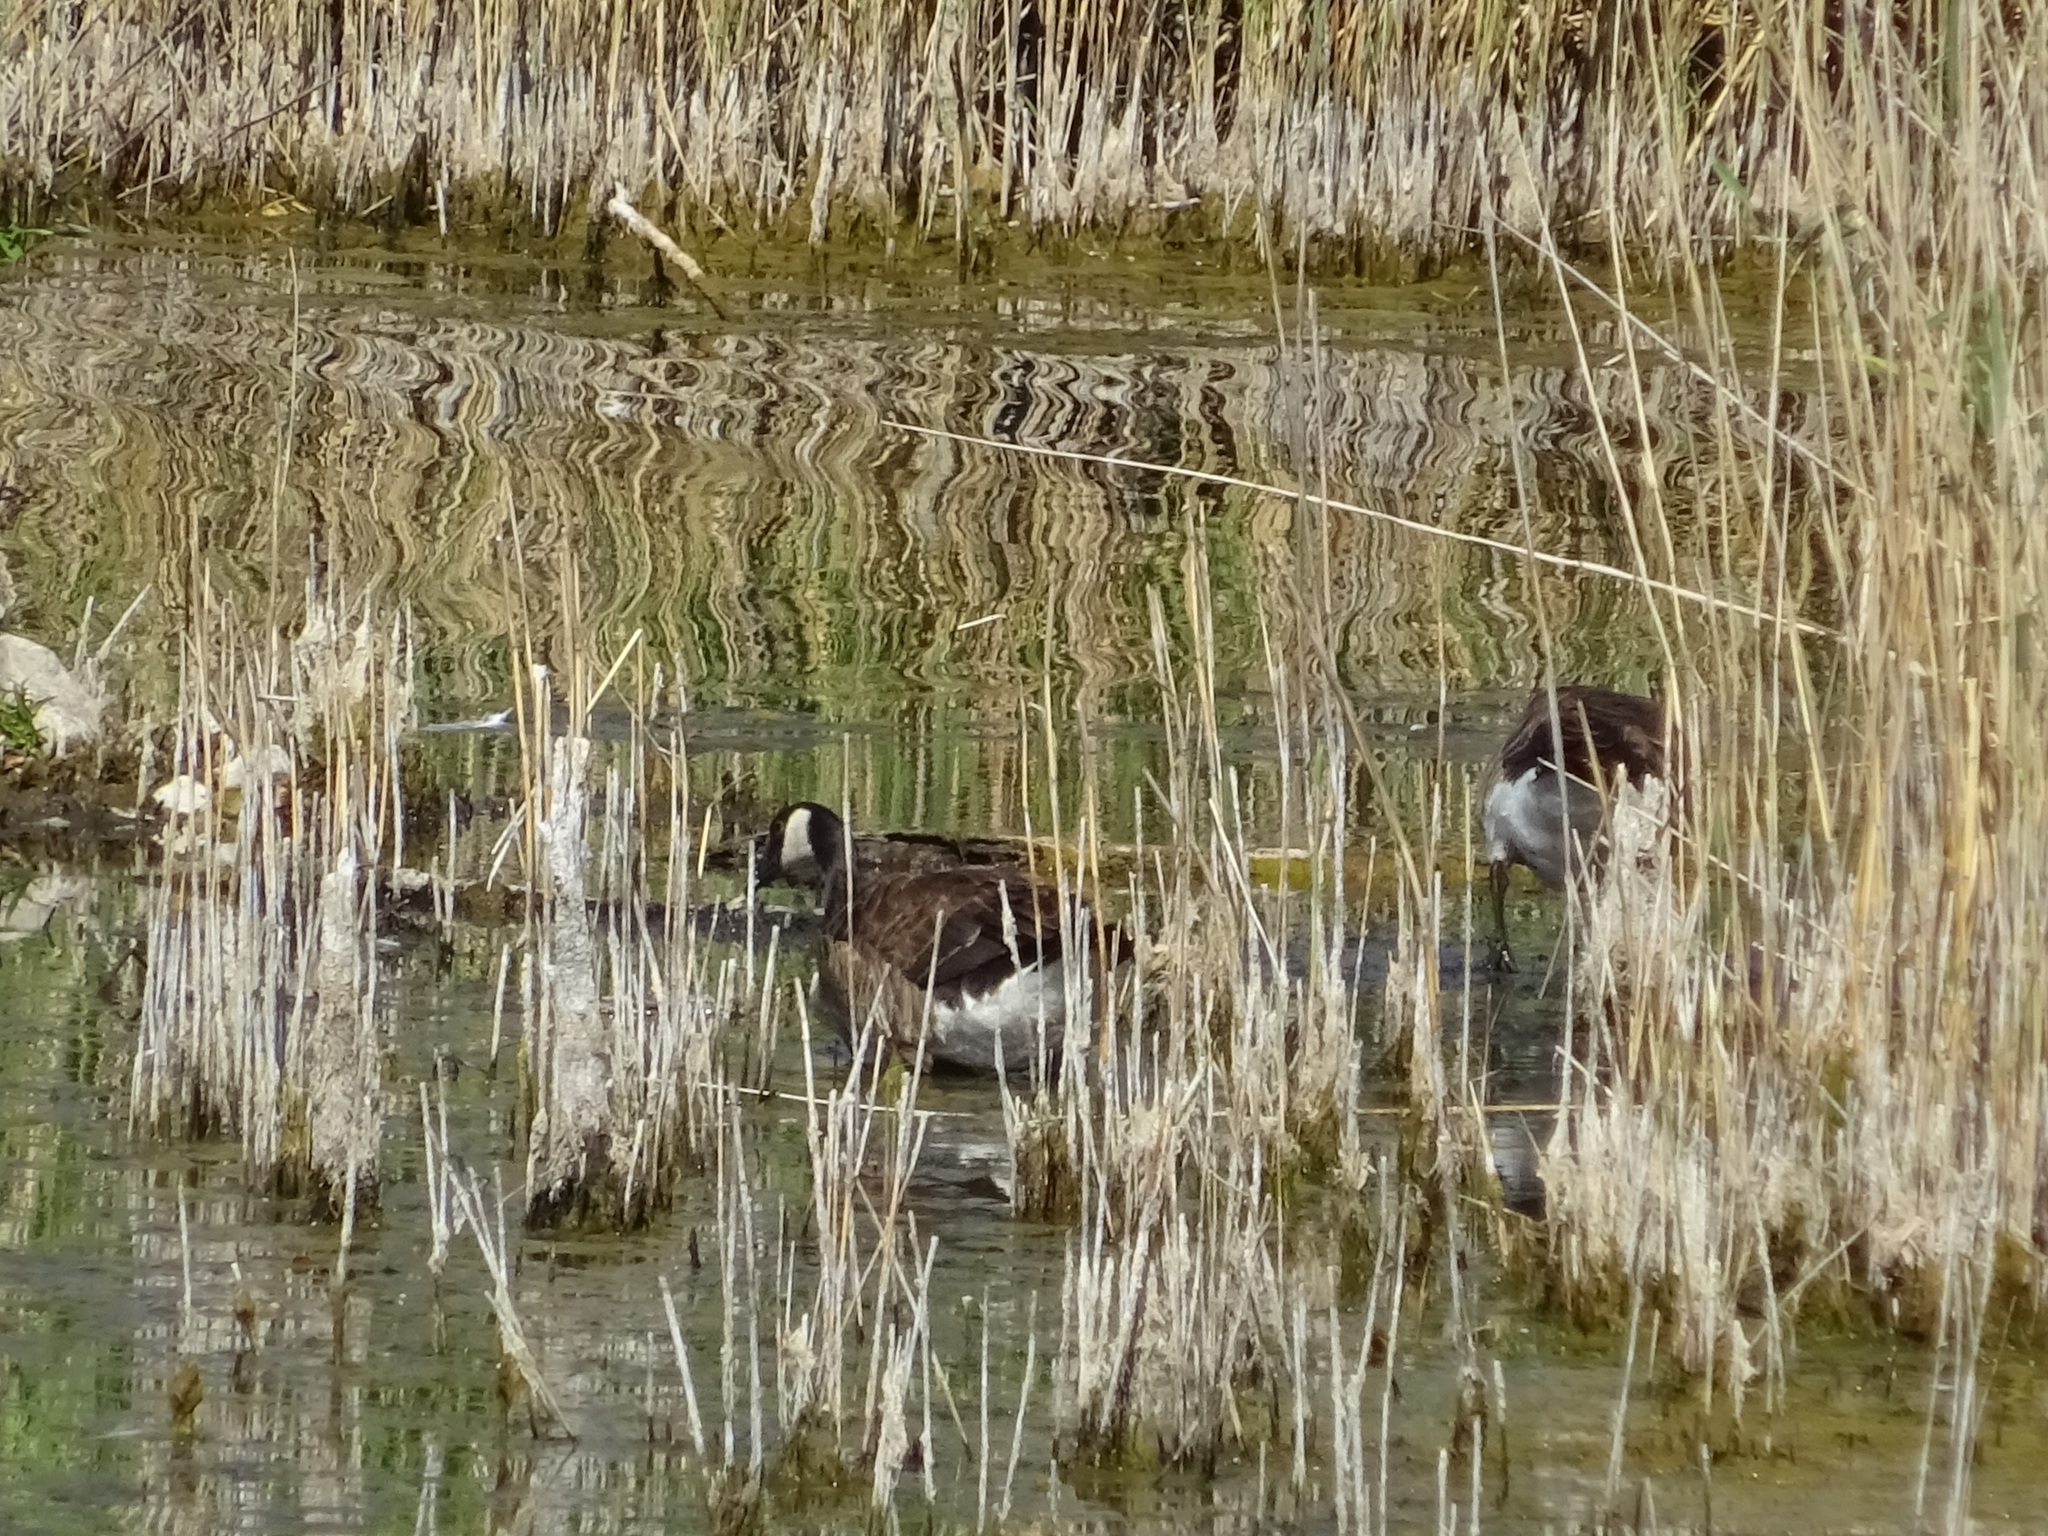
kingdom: Animalia
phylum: Chordata
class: Aves
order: Anseriformes
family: Anatidae
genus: Branta
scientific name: Branta canadensis
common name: Canada goose
